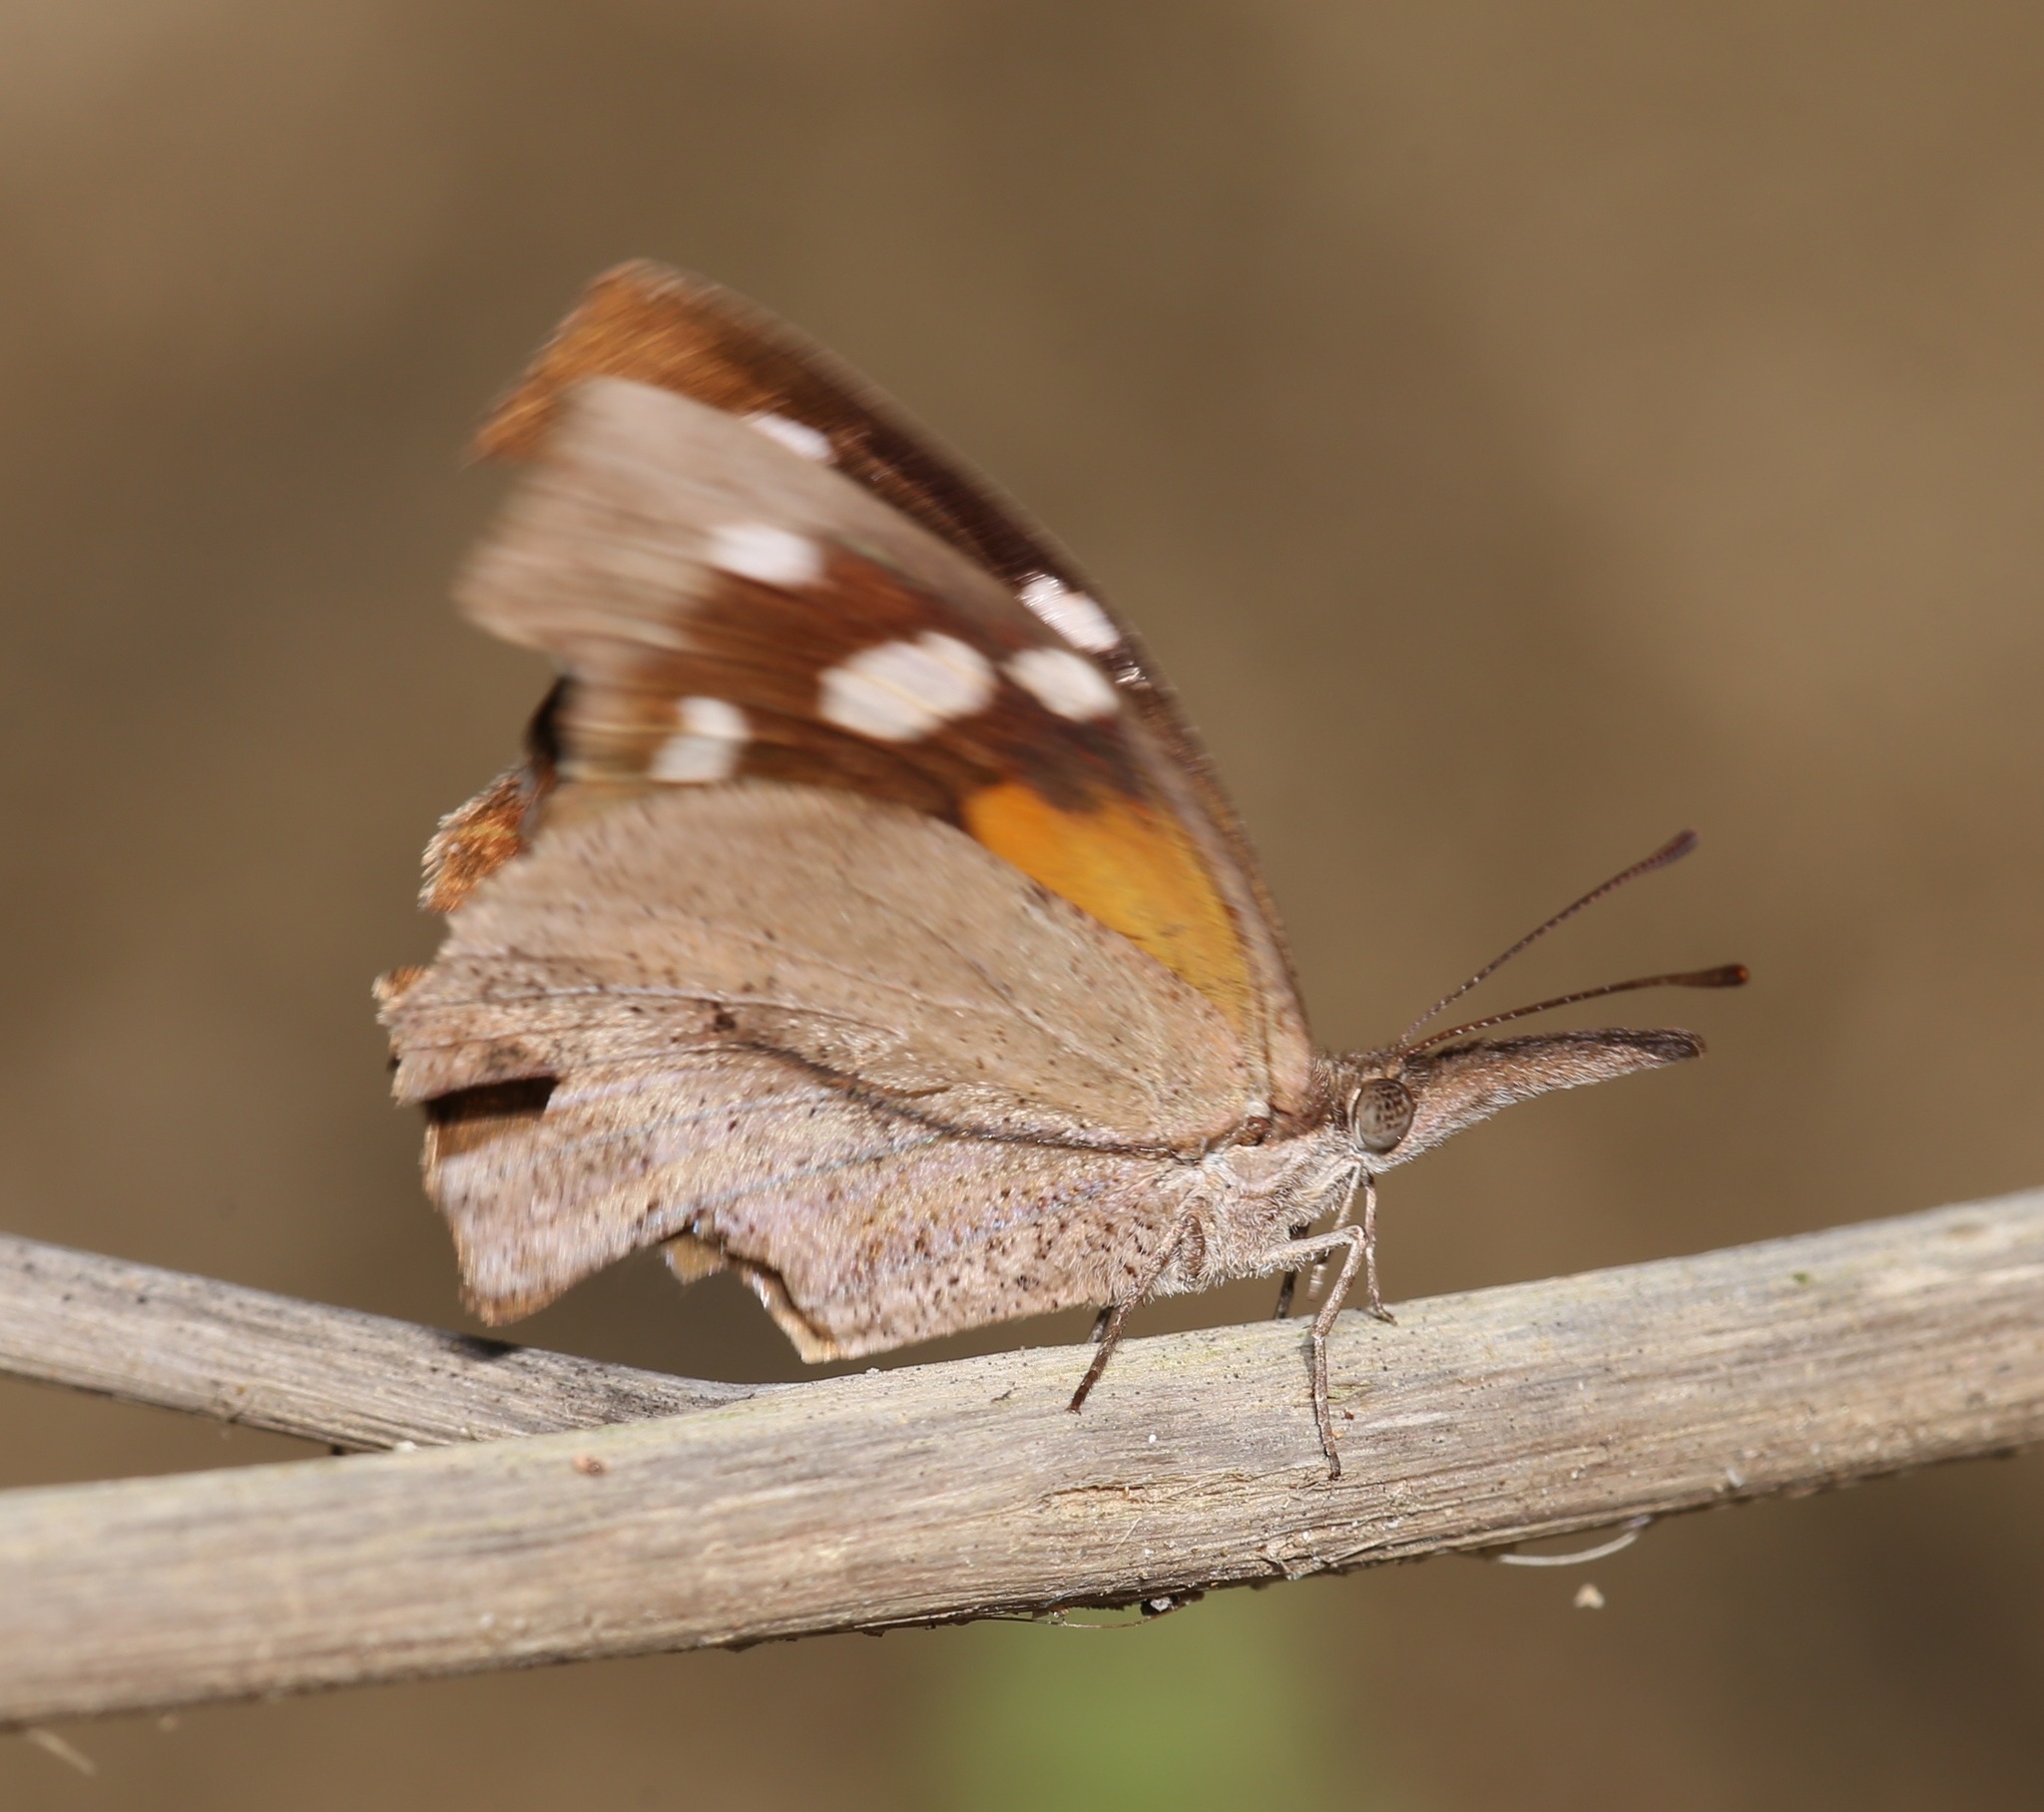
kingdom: Animalia
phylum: Arthropoda
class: Insecta
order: Lepidoptera
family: Nymphalidae
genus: Libytheana
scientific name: Libytheana carinenta
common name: American snout
